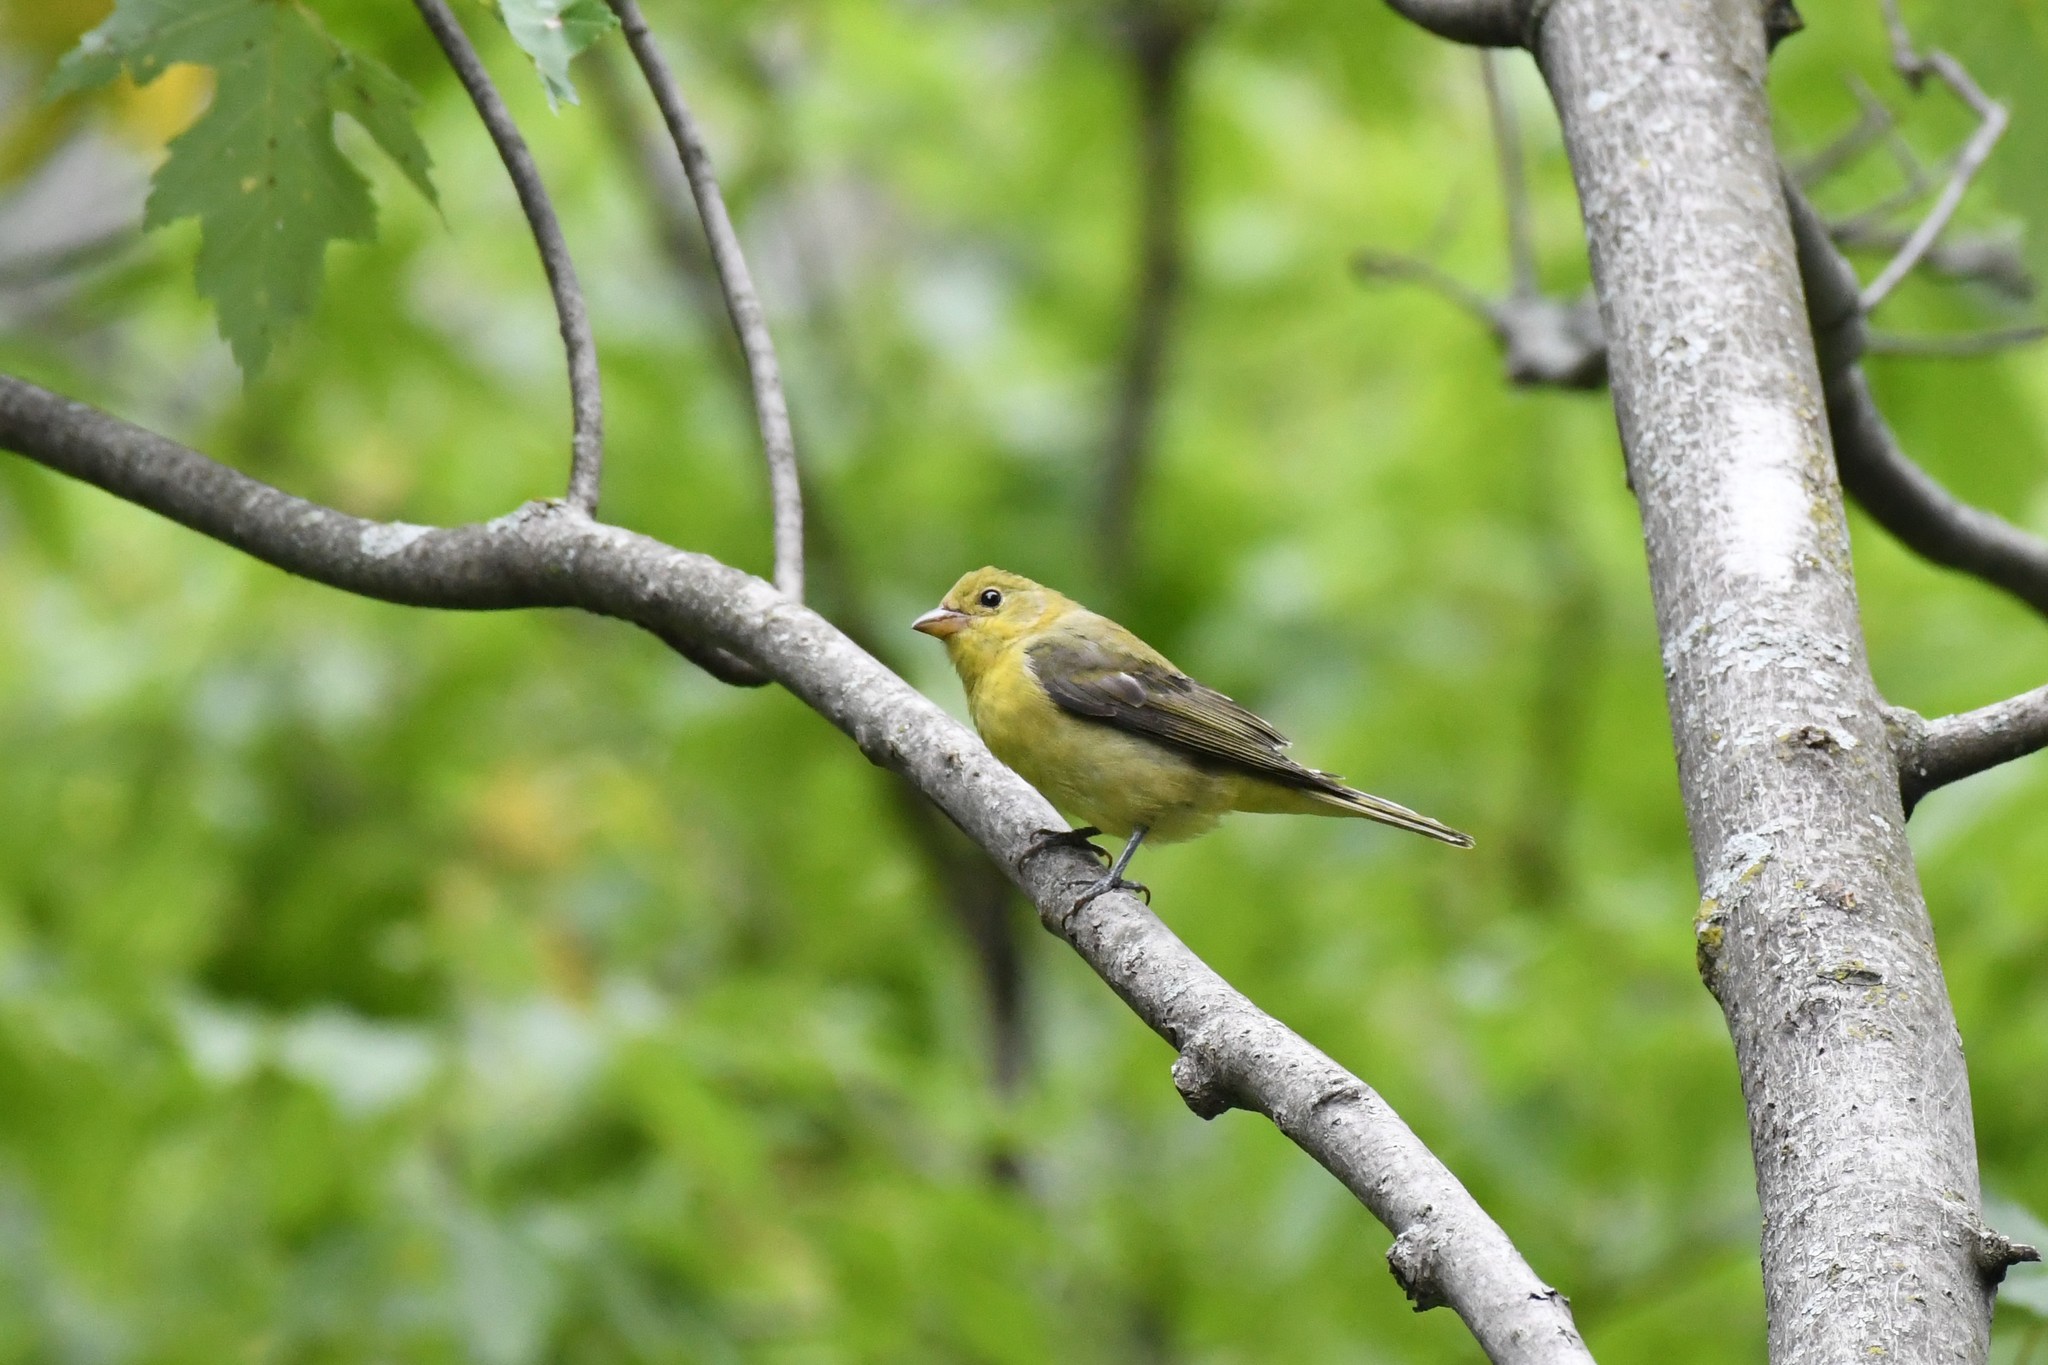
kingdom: Animalia
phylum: Chordata
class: Aves
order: Passeriformes
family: Cardinalidae
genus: Piranga
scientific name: Piranga olivacea
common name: Scarlet tanager
